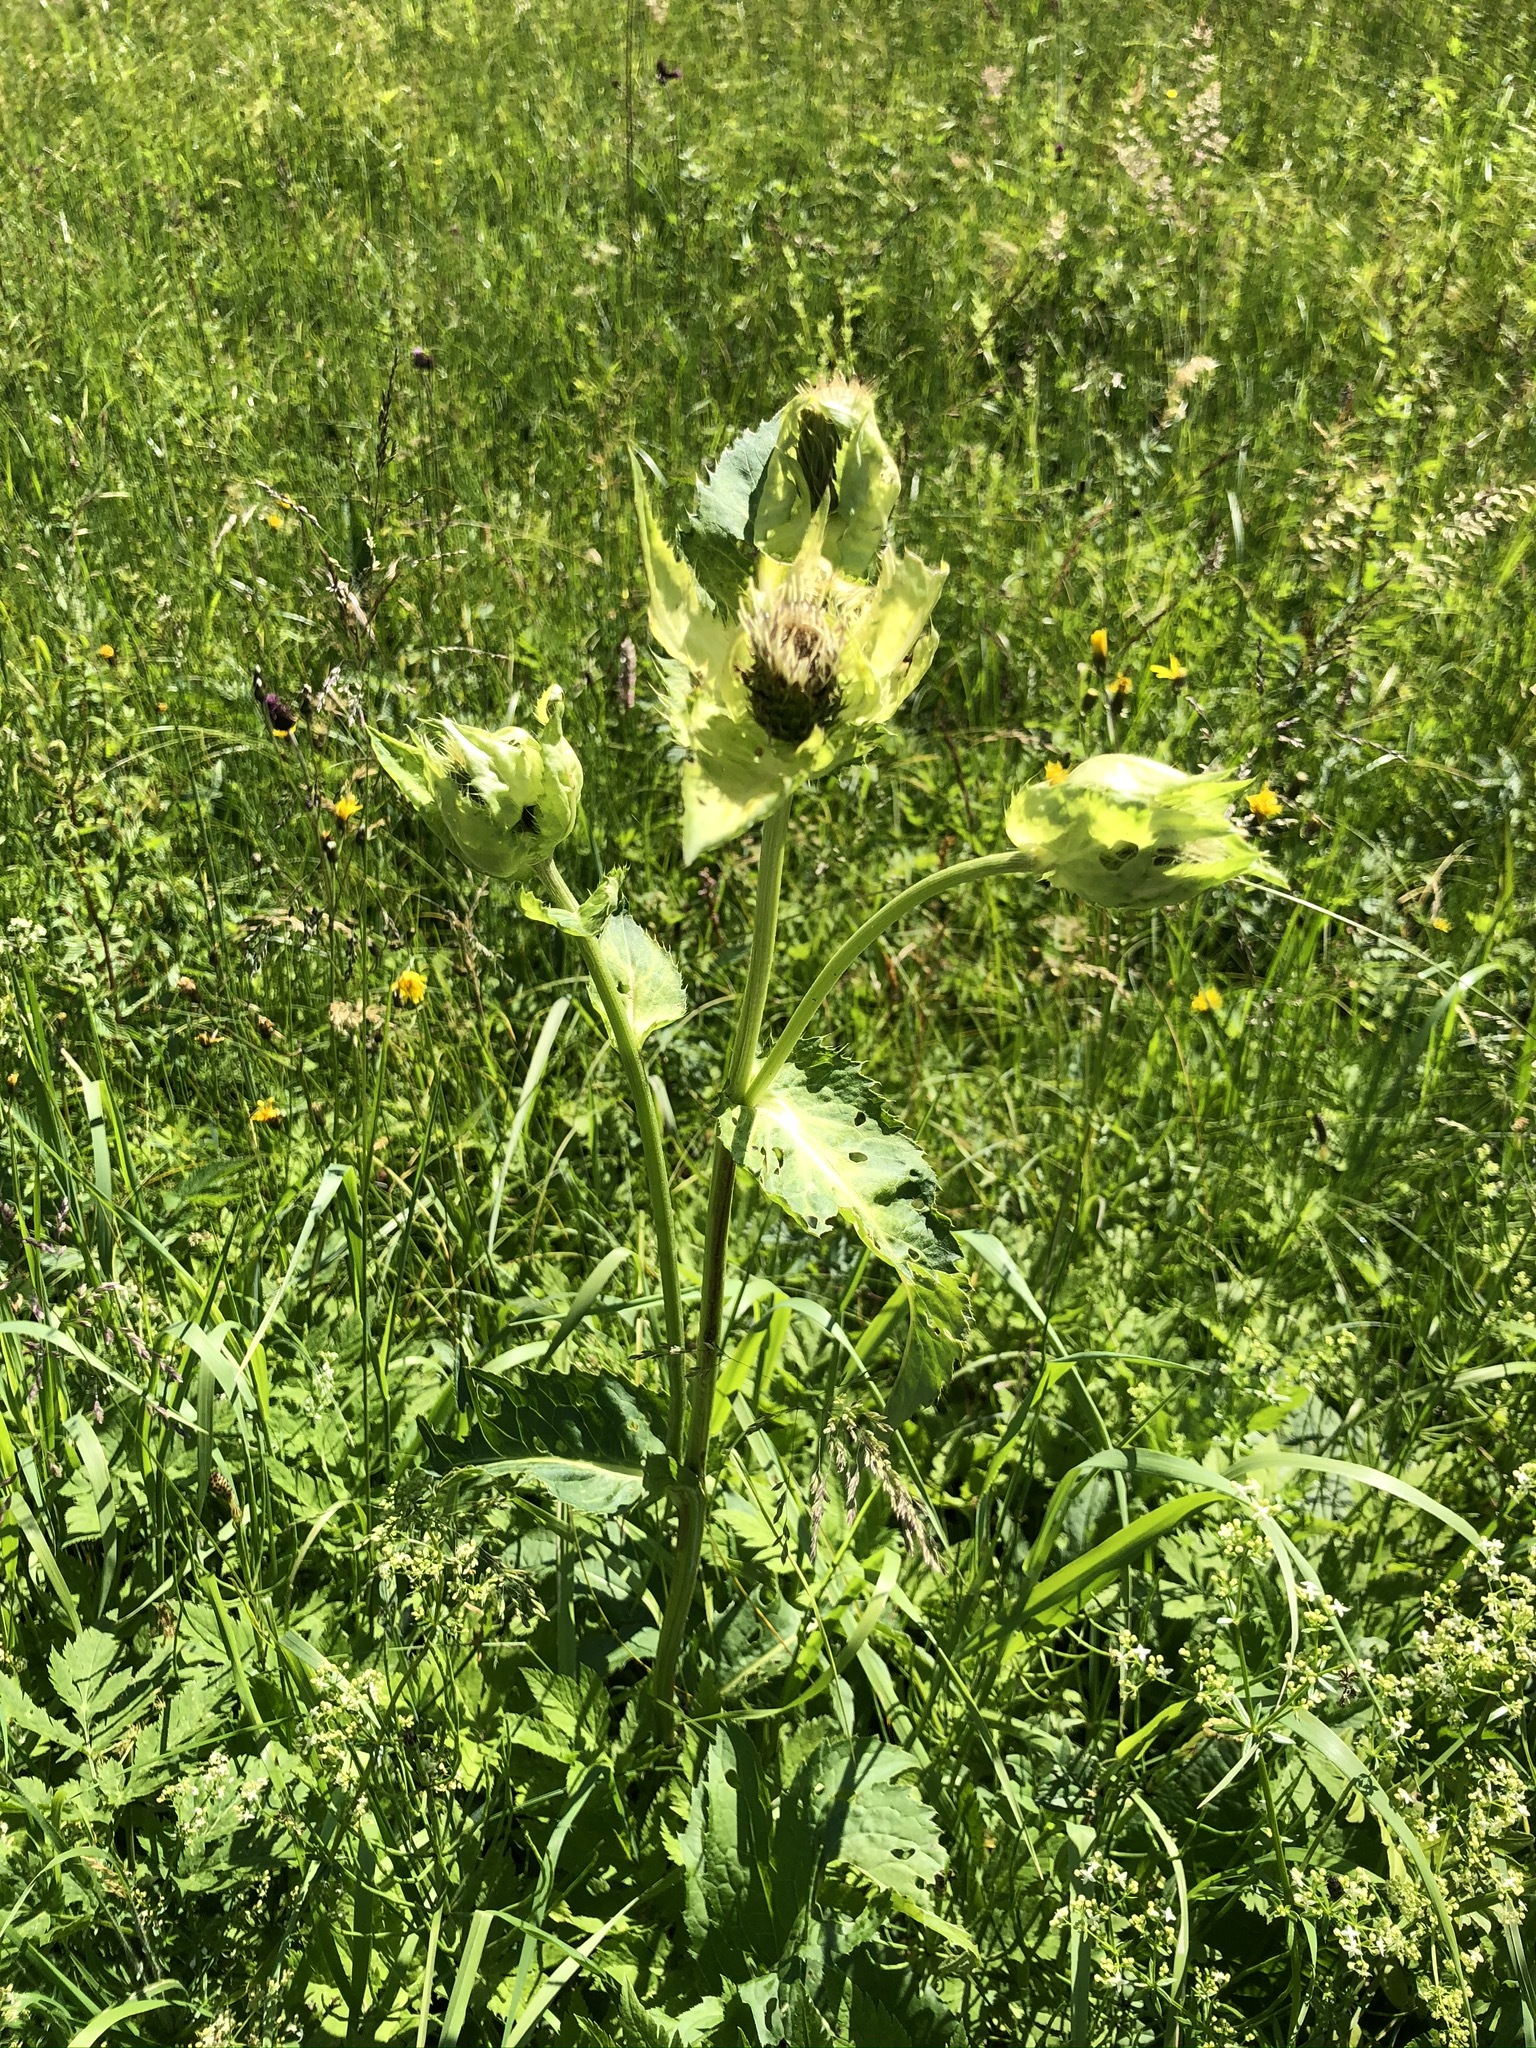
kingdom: Plantae
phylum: Tracheophyta
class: Magnoliopsida
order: Asterales
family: Asteraceae
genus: Cirsium
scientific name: Cirsium oleraceum
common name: Cabbage thistle
